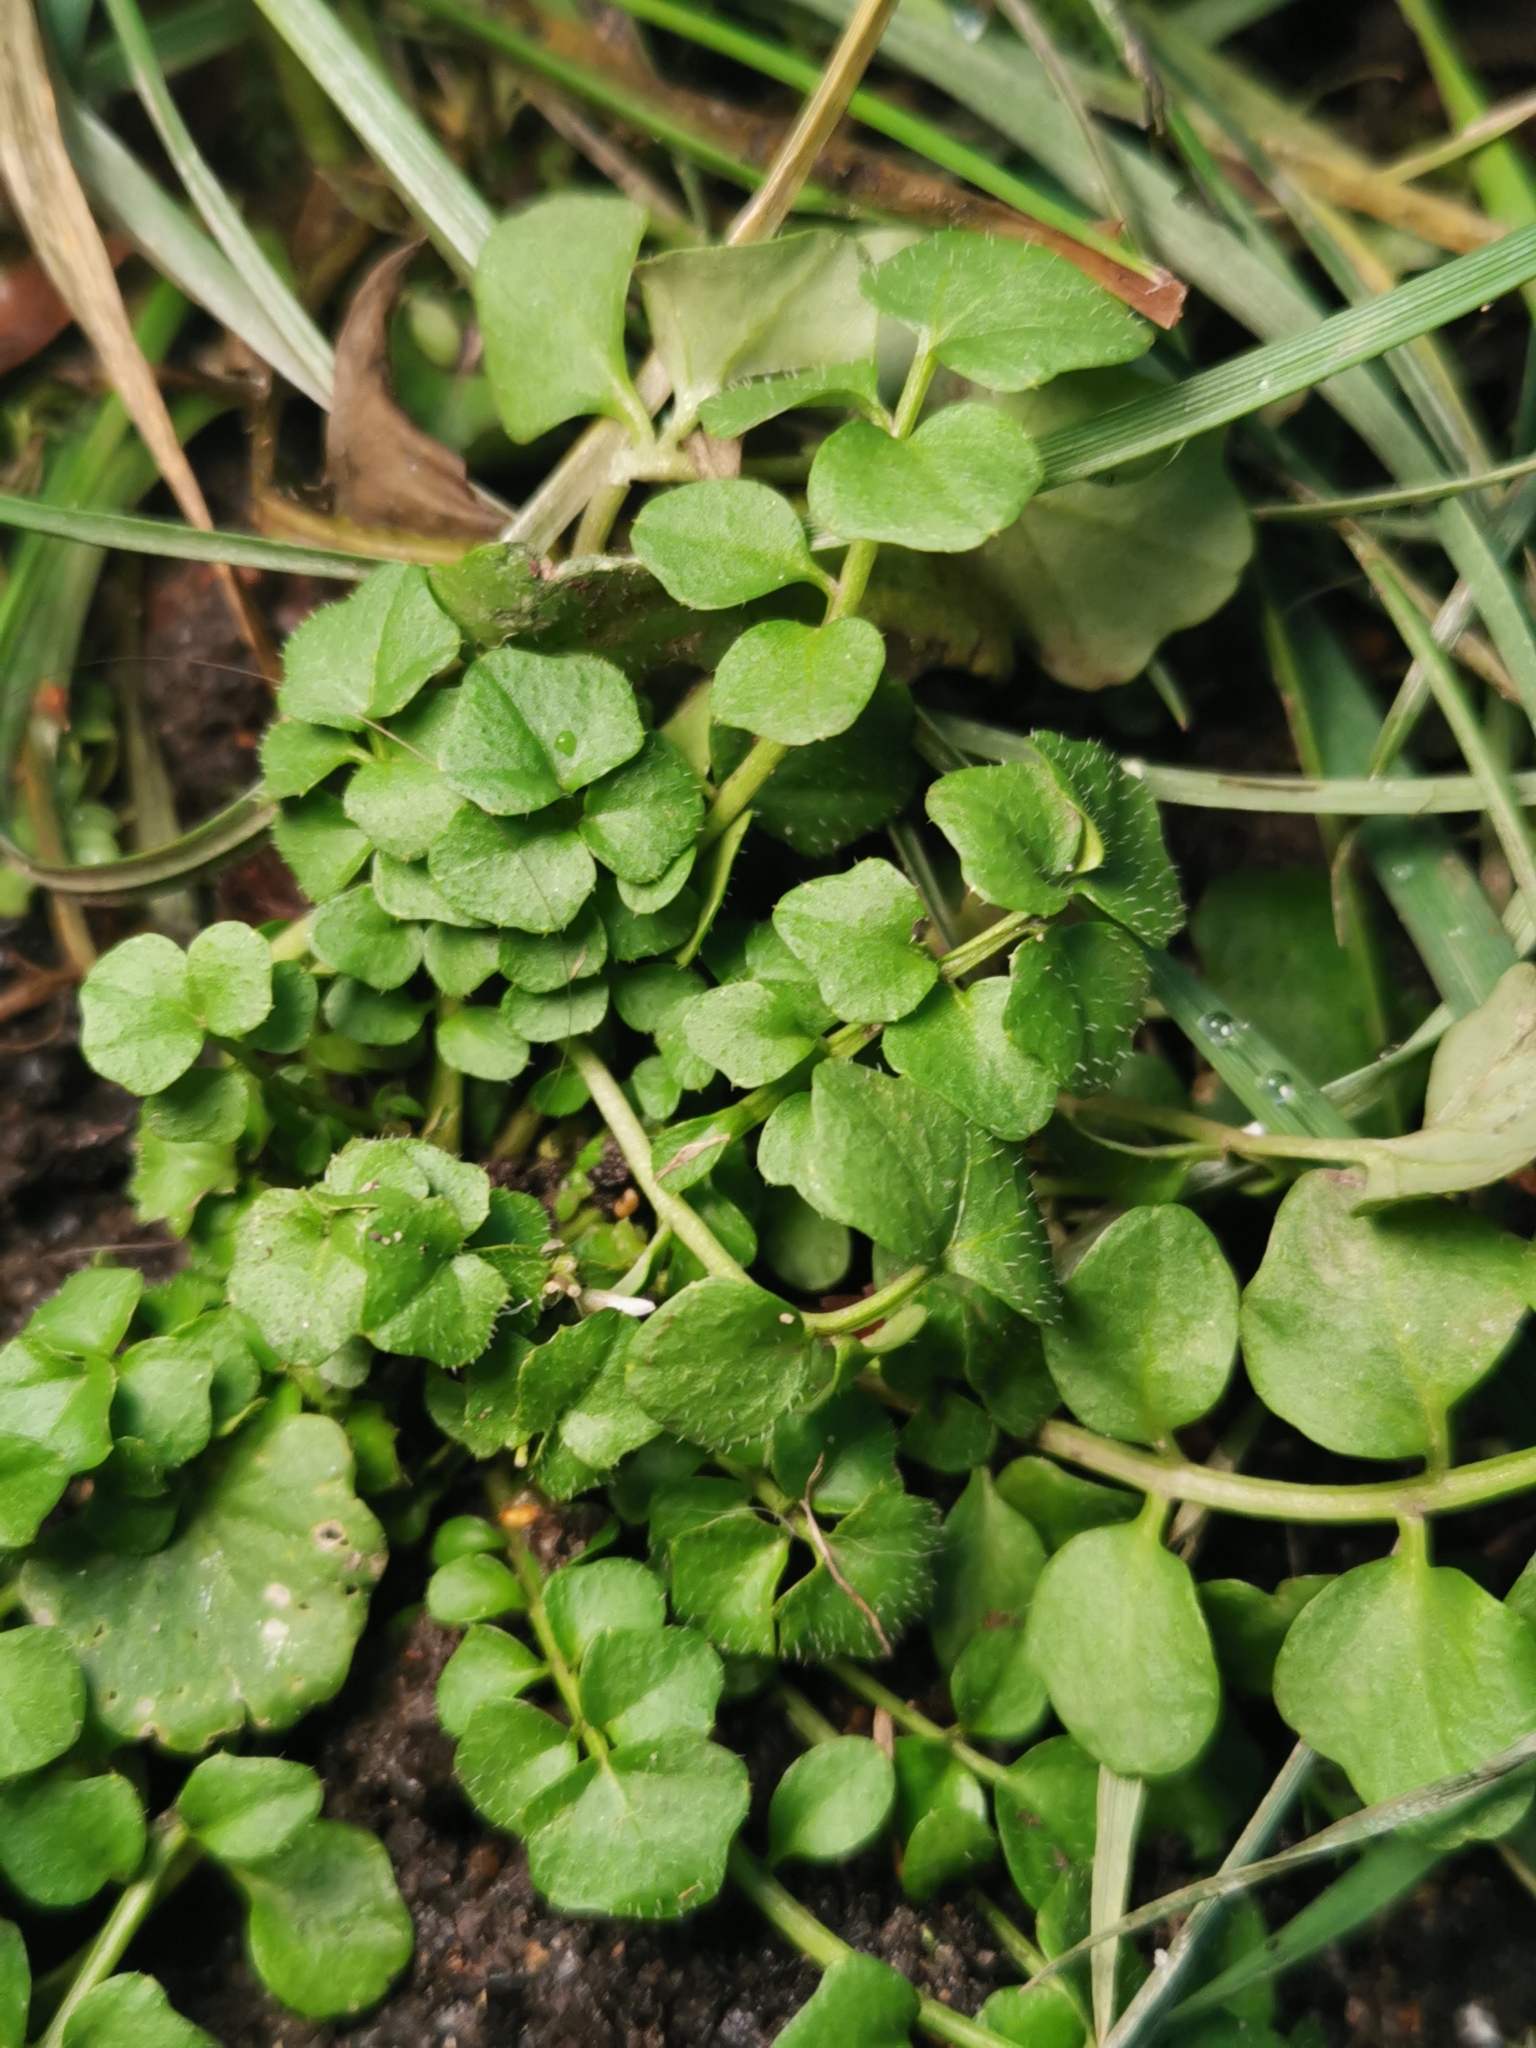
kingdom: Plantae
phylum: Tracheophyta
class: Magnoliopsida
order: Brassicales
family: Brassicaceae
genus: Cardamine
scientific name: Cardamine hirsuta
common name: Hairy bittercress
